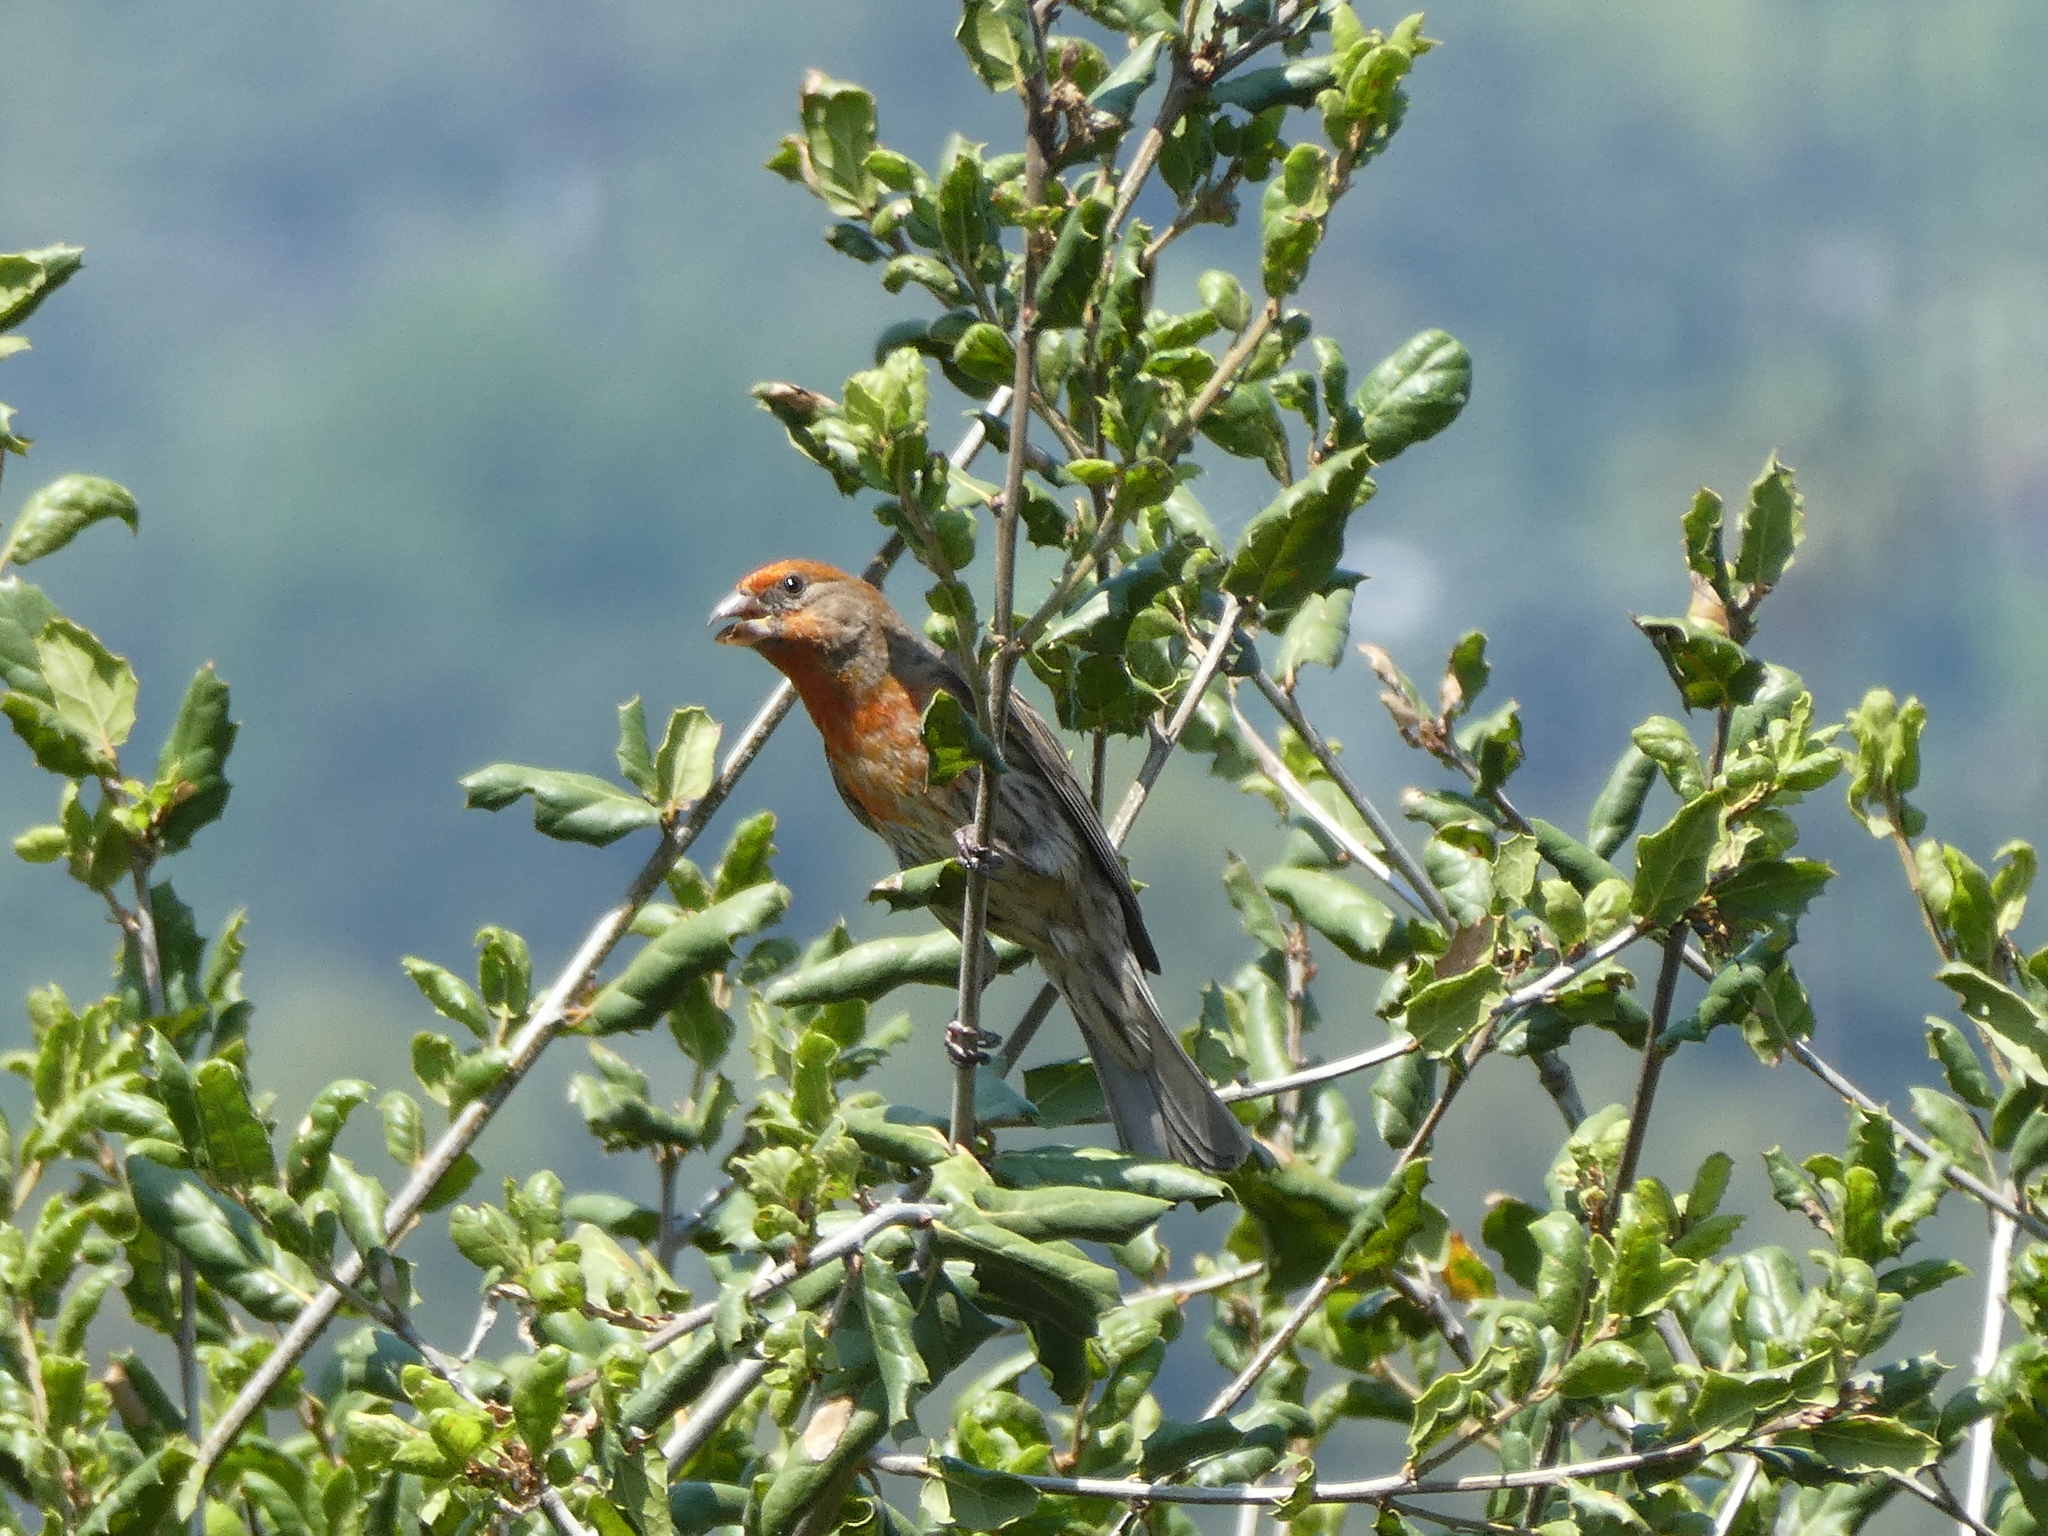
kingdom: Animalia
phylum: Chordata
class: Aves
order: Passeriformes
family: Fringillidae
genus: Haemorhous
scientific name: Haemorhous mexicanus
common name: House finch
